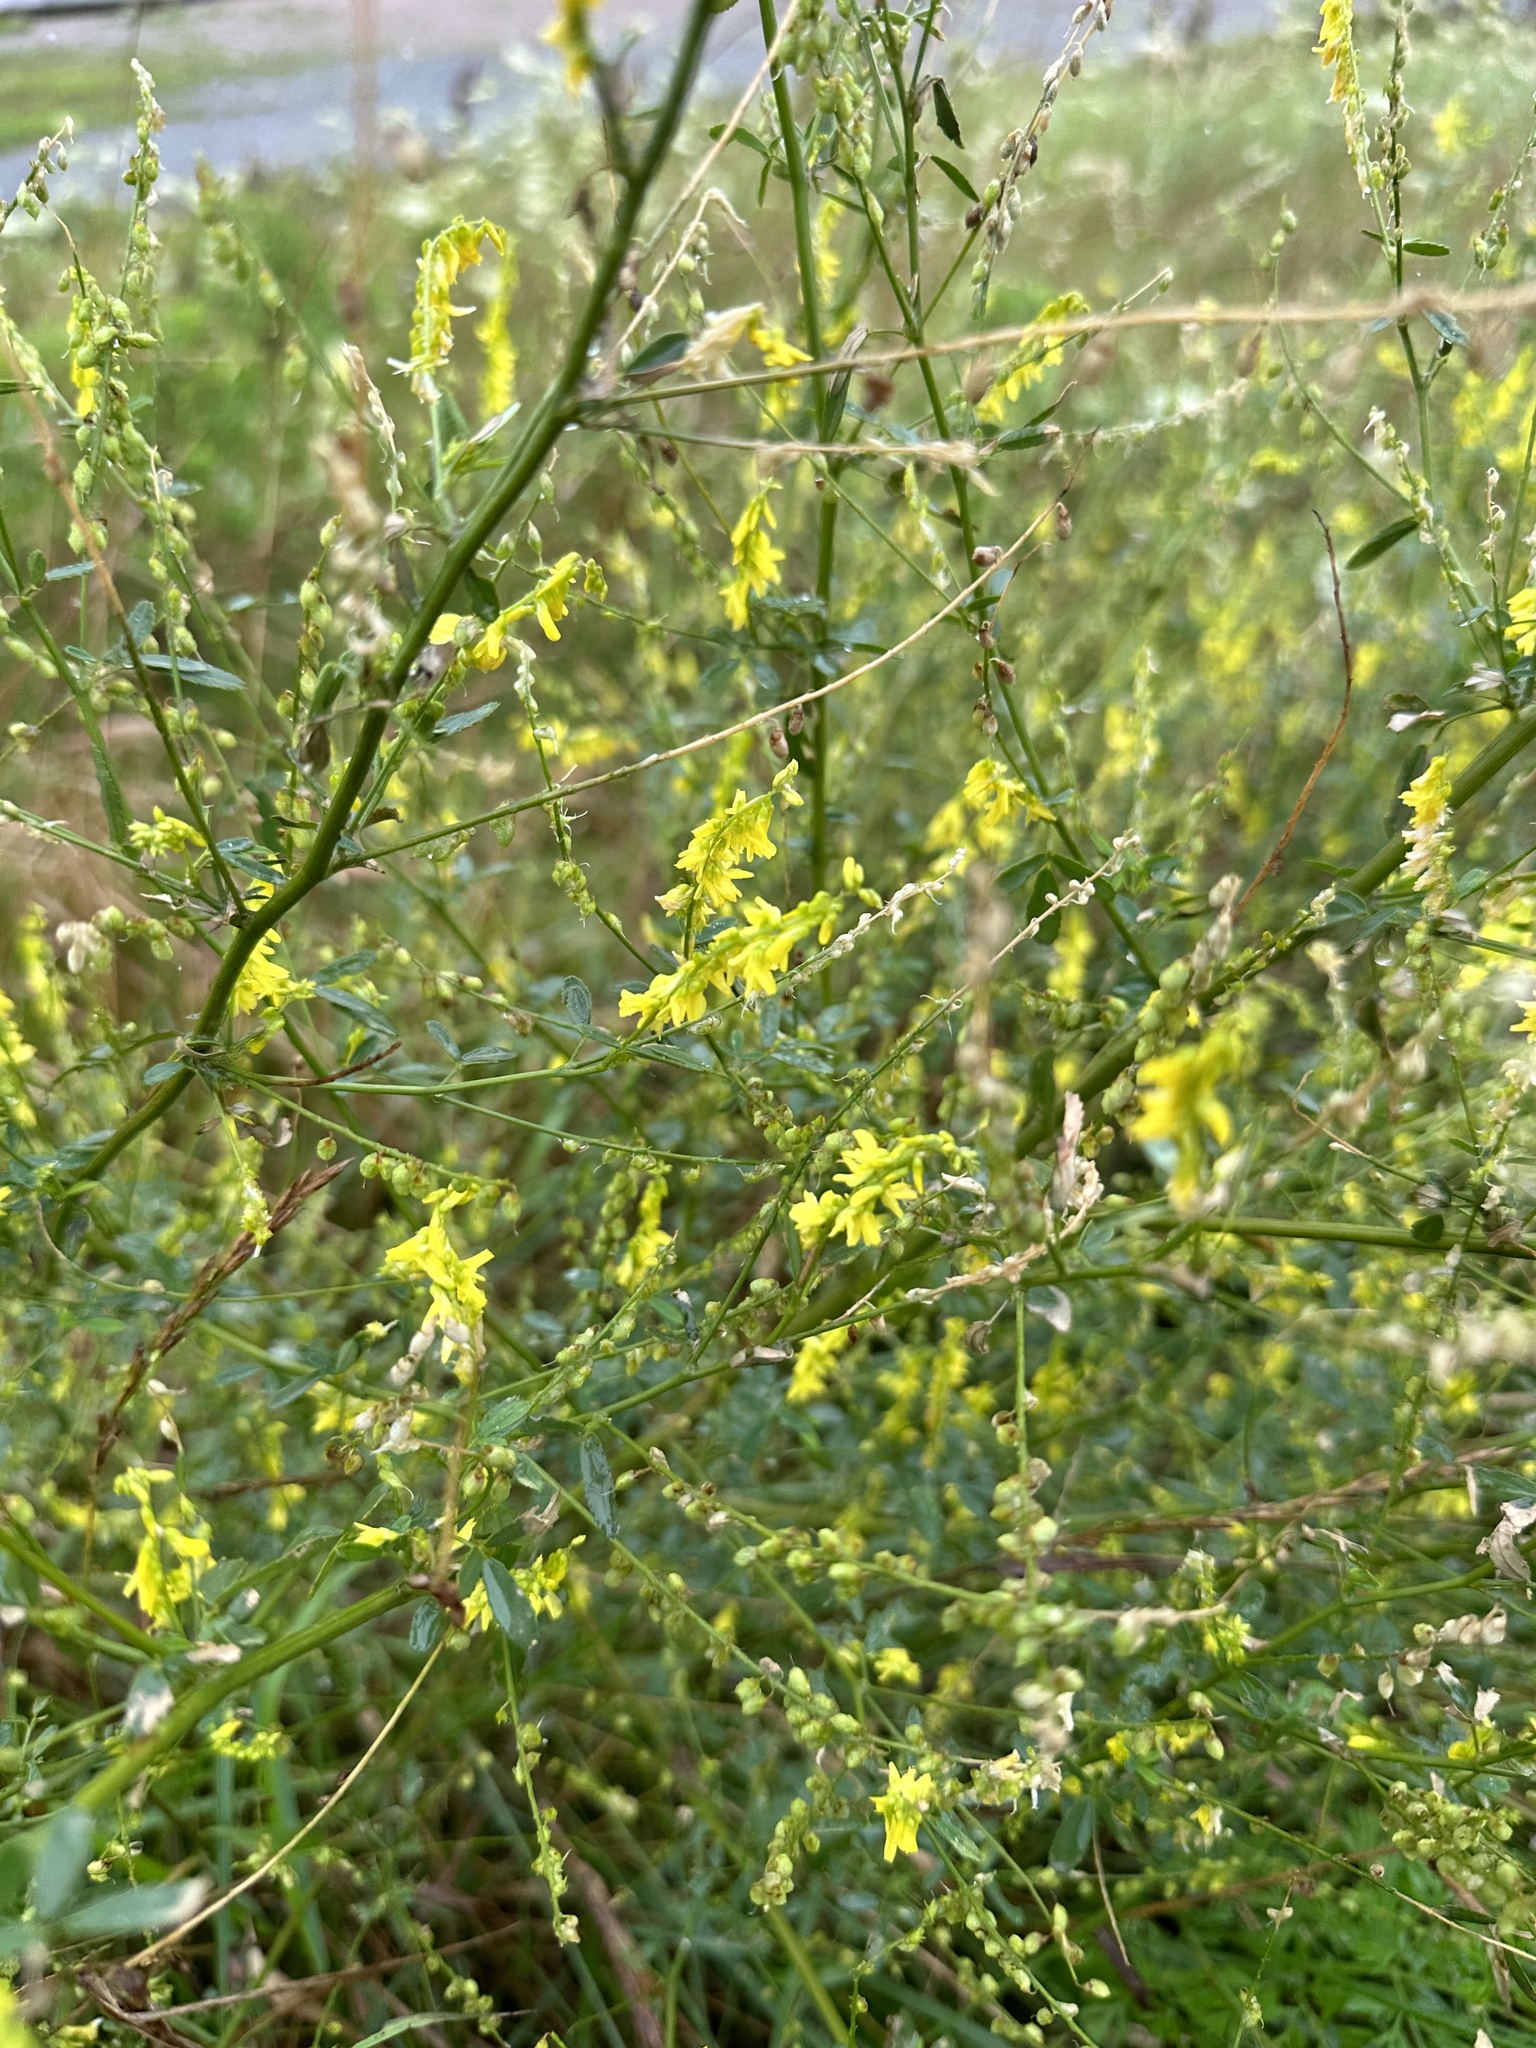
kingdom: Plantae
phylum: Tracheophyta
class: Magnoliopsida
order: Fabales
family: Fabaceae
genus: Melilotus
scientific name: Melilotus officinalis
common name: Sweetclover
